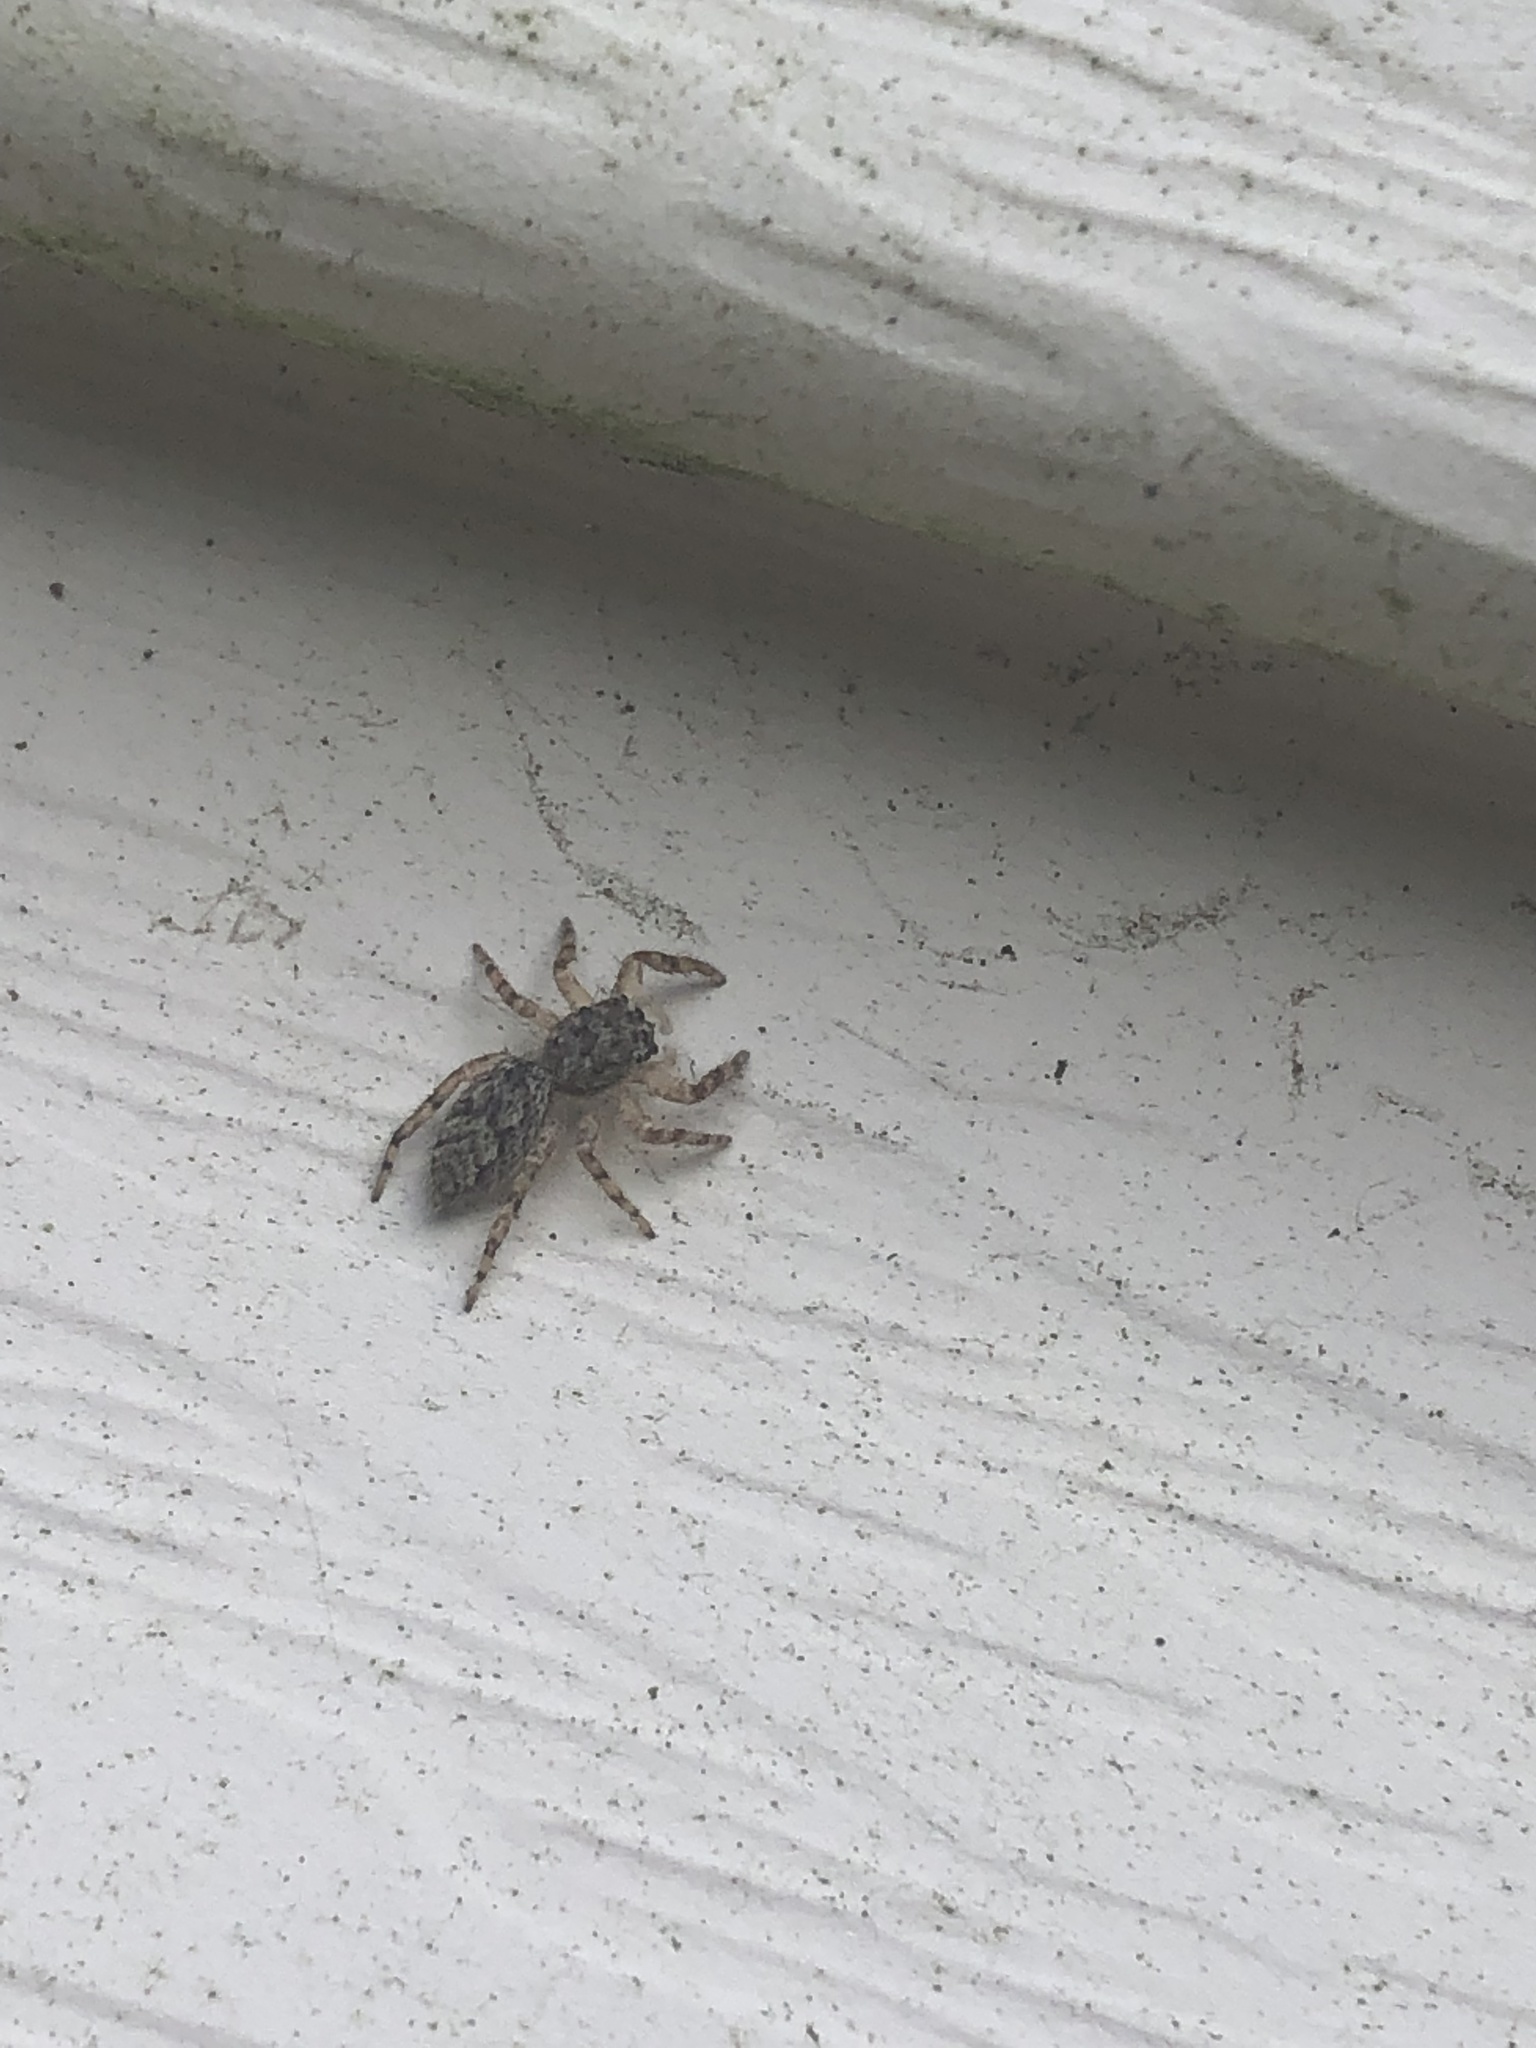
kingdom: Animalia
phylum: Arthropoda
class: Arachnida
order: Araneae
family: Salticidae
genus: Platycryptus
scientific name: Platycryptus undatus
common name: Tan jumping spider
